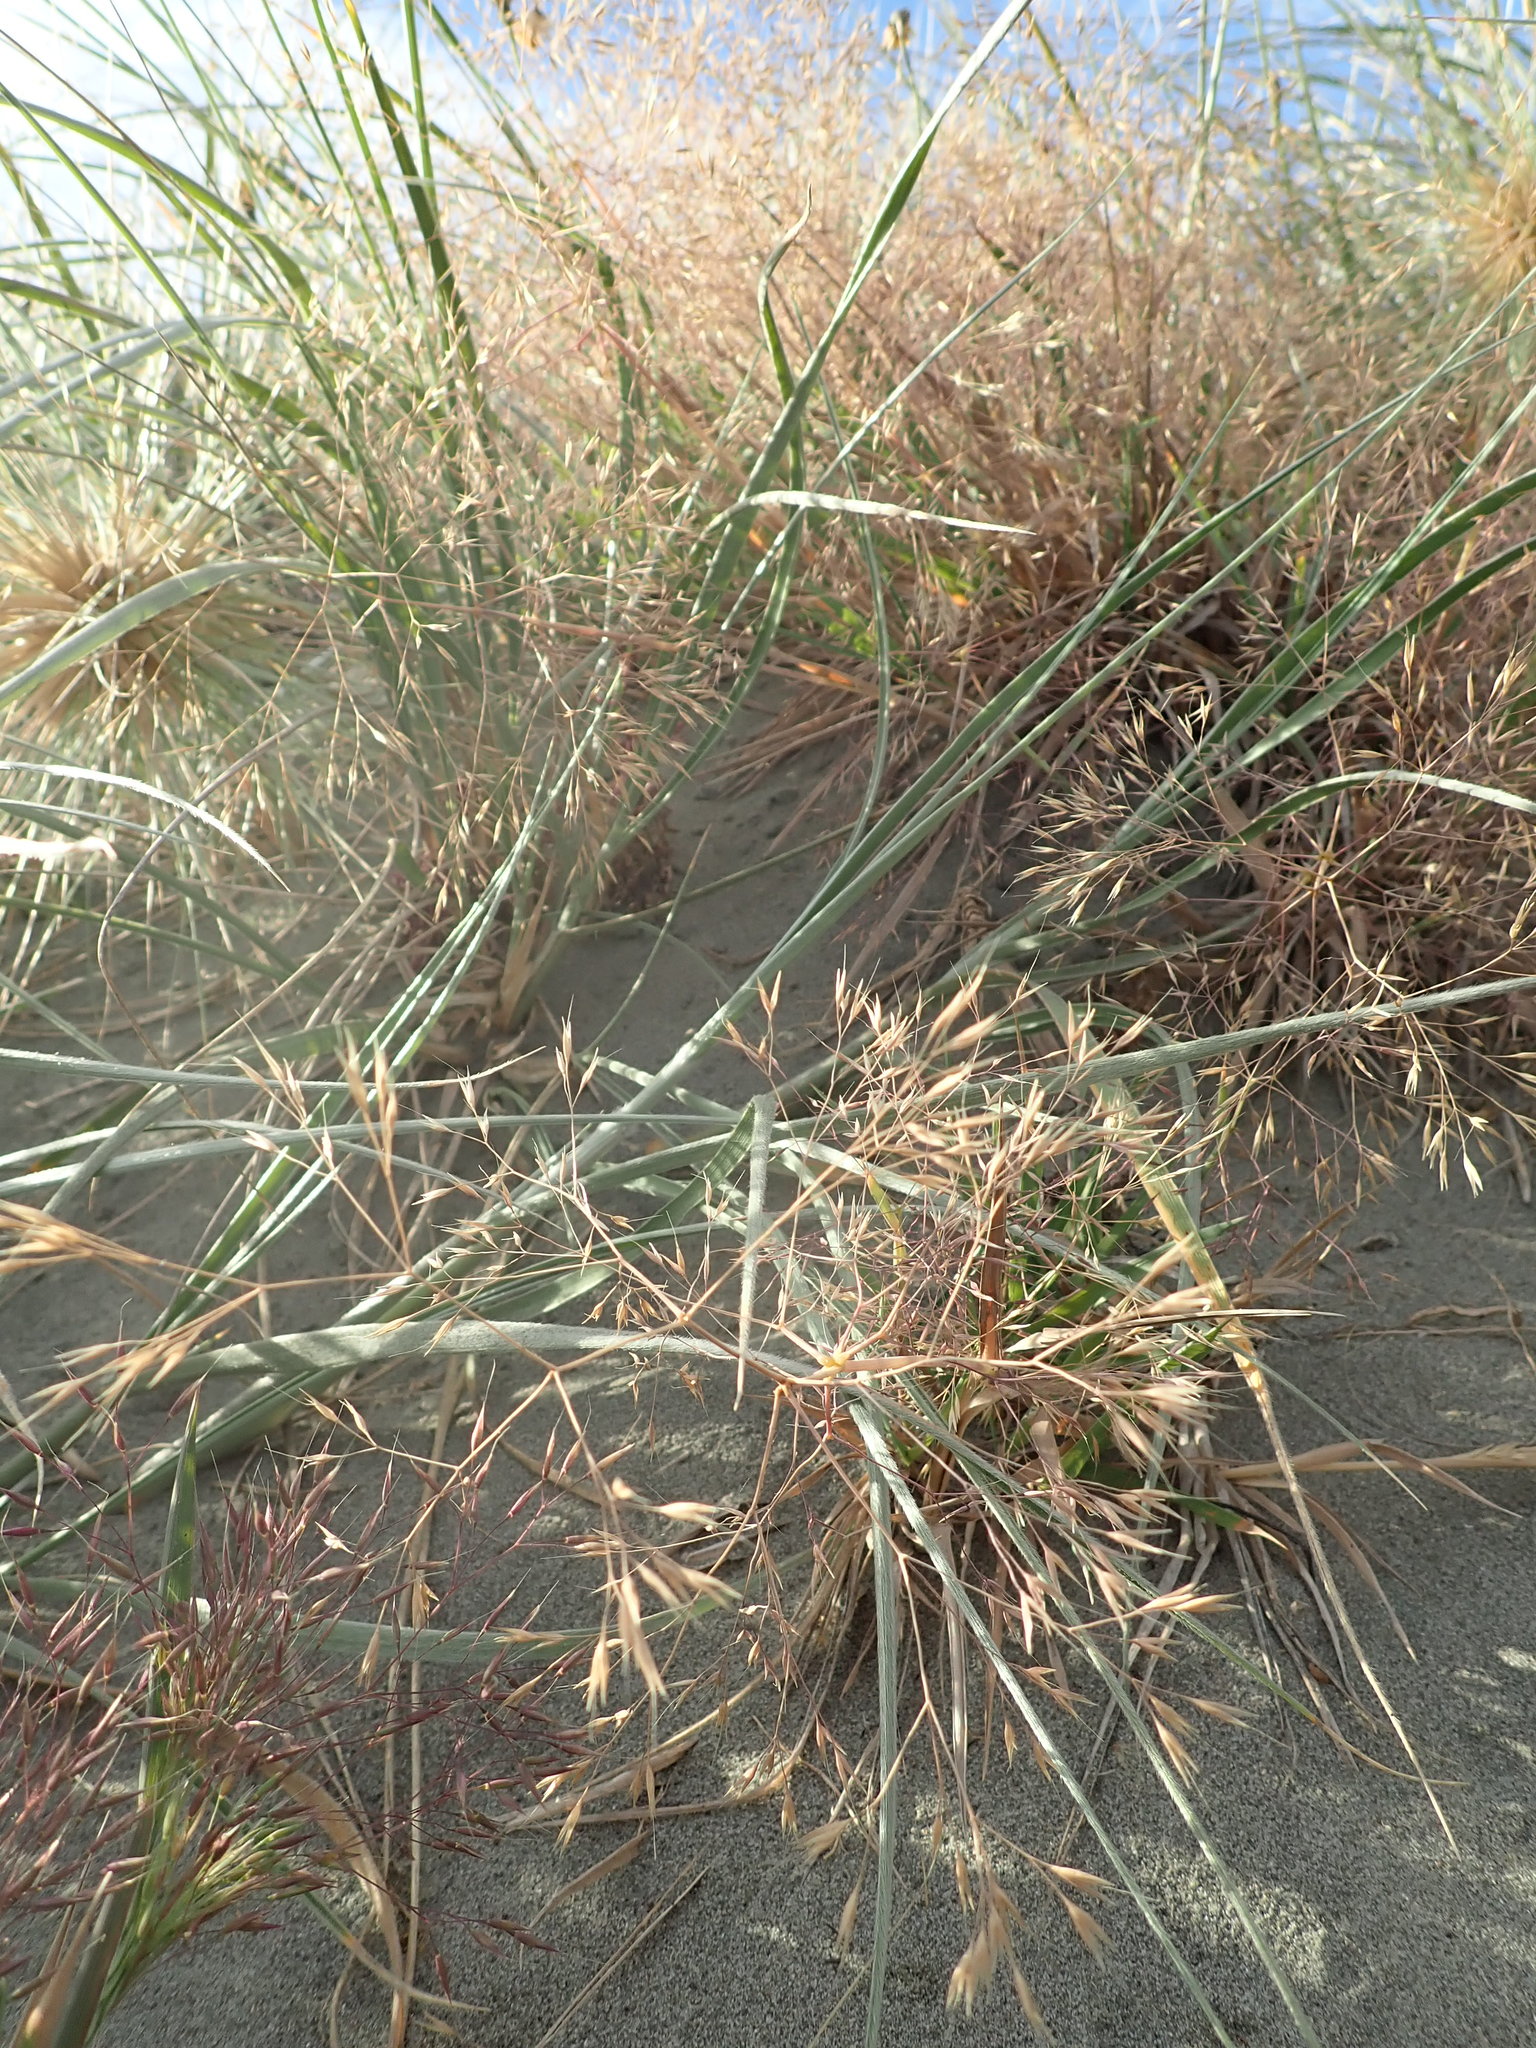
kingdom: Plantae
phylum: Tracheophyta
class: Liliopsida
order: Poales
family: Poaceae
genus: Lachnagrostis
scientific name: Lachnagrostis billardierei
